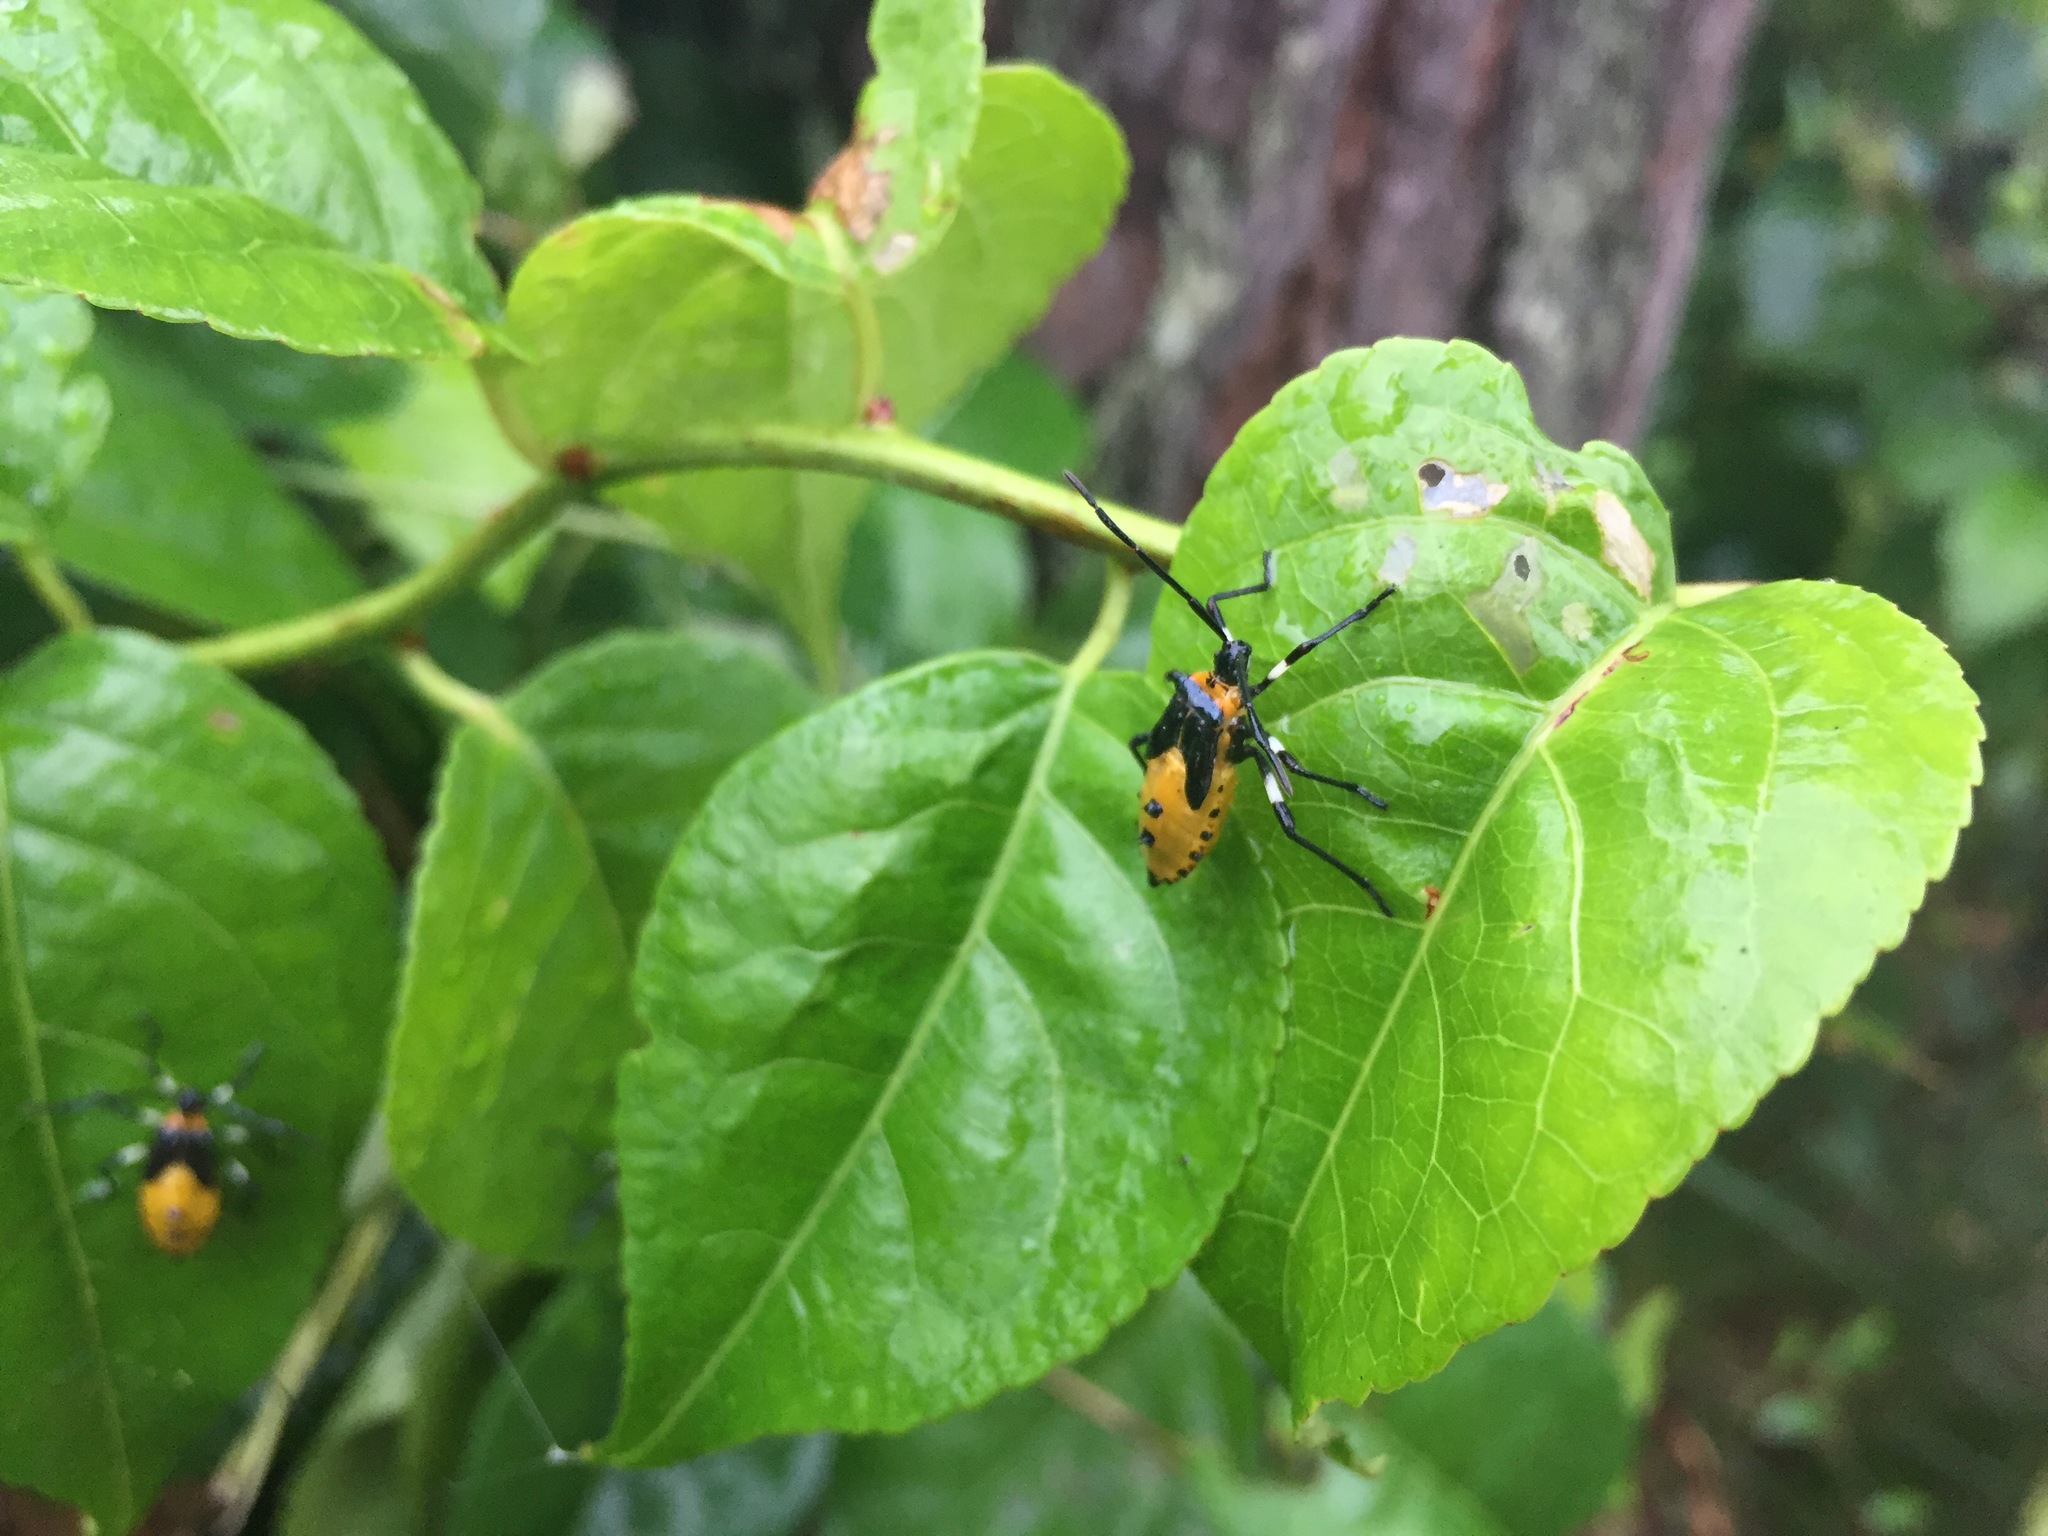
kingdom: Animalia
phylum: Arthropoda
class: Insecta
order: Hemiptera
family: Coreidae
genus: Plinachtus
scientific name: Plinachtus bicoloripes
